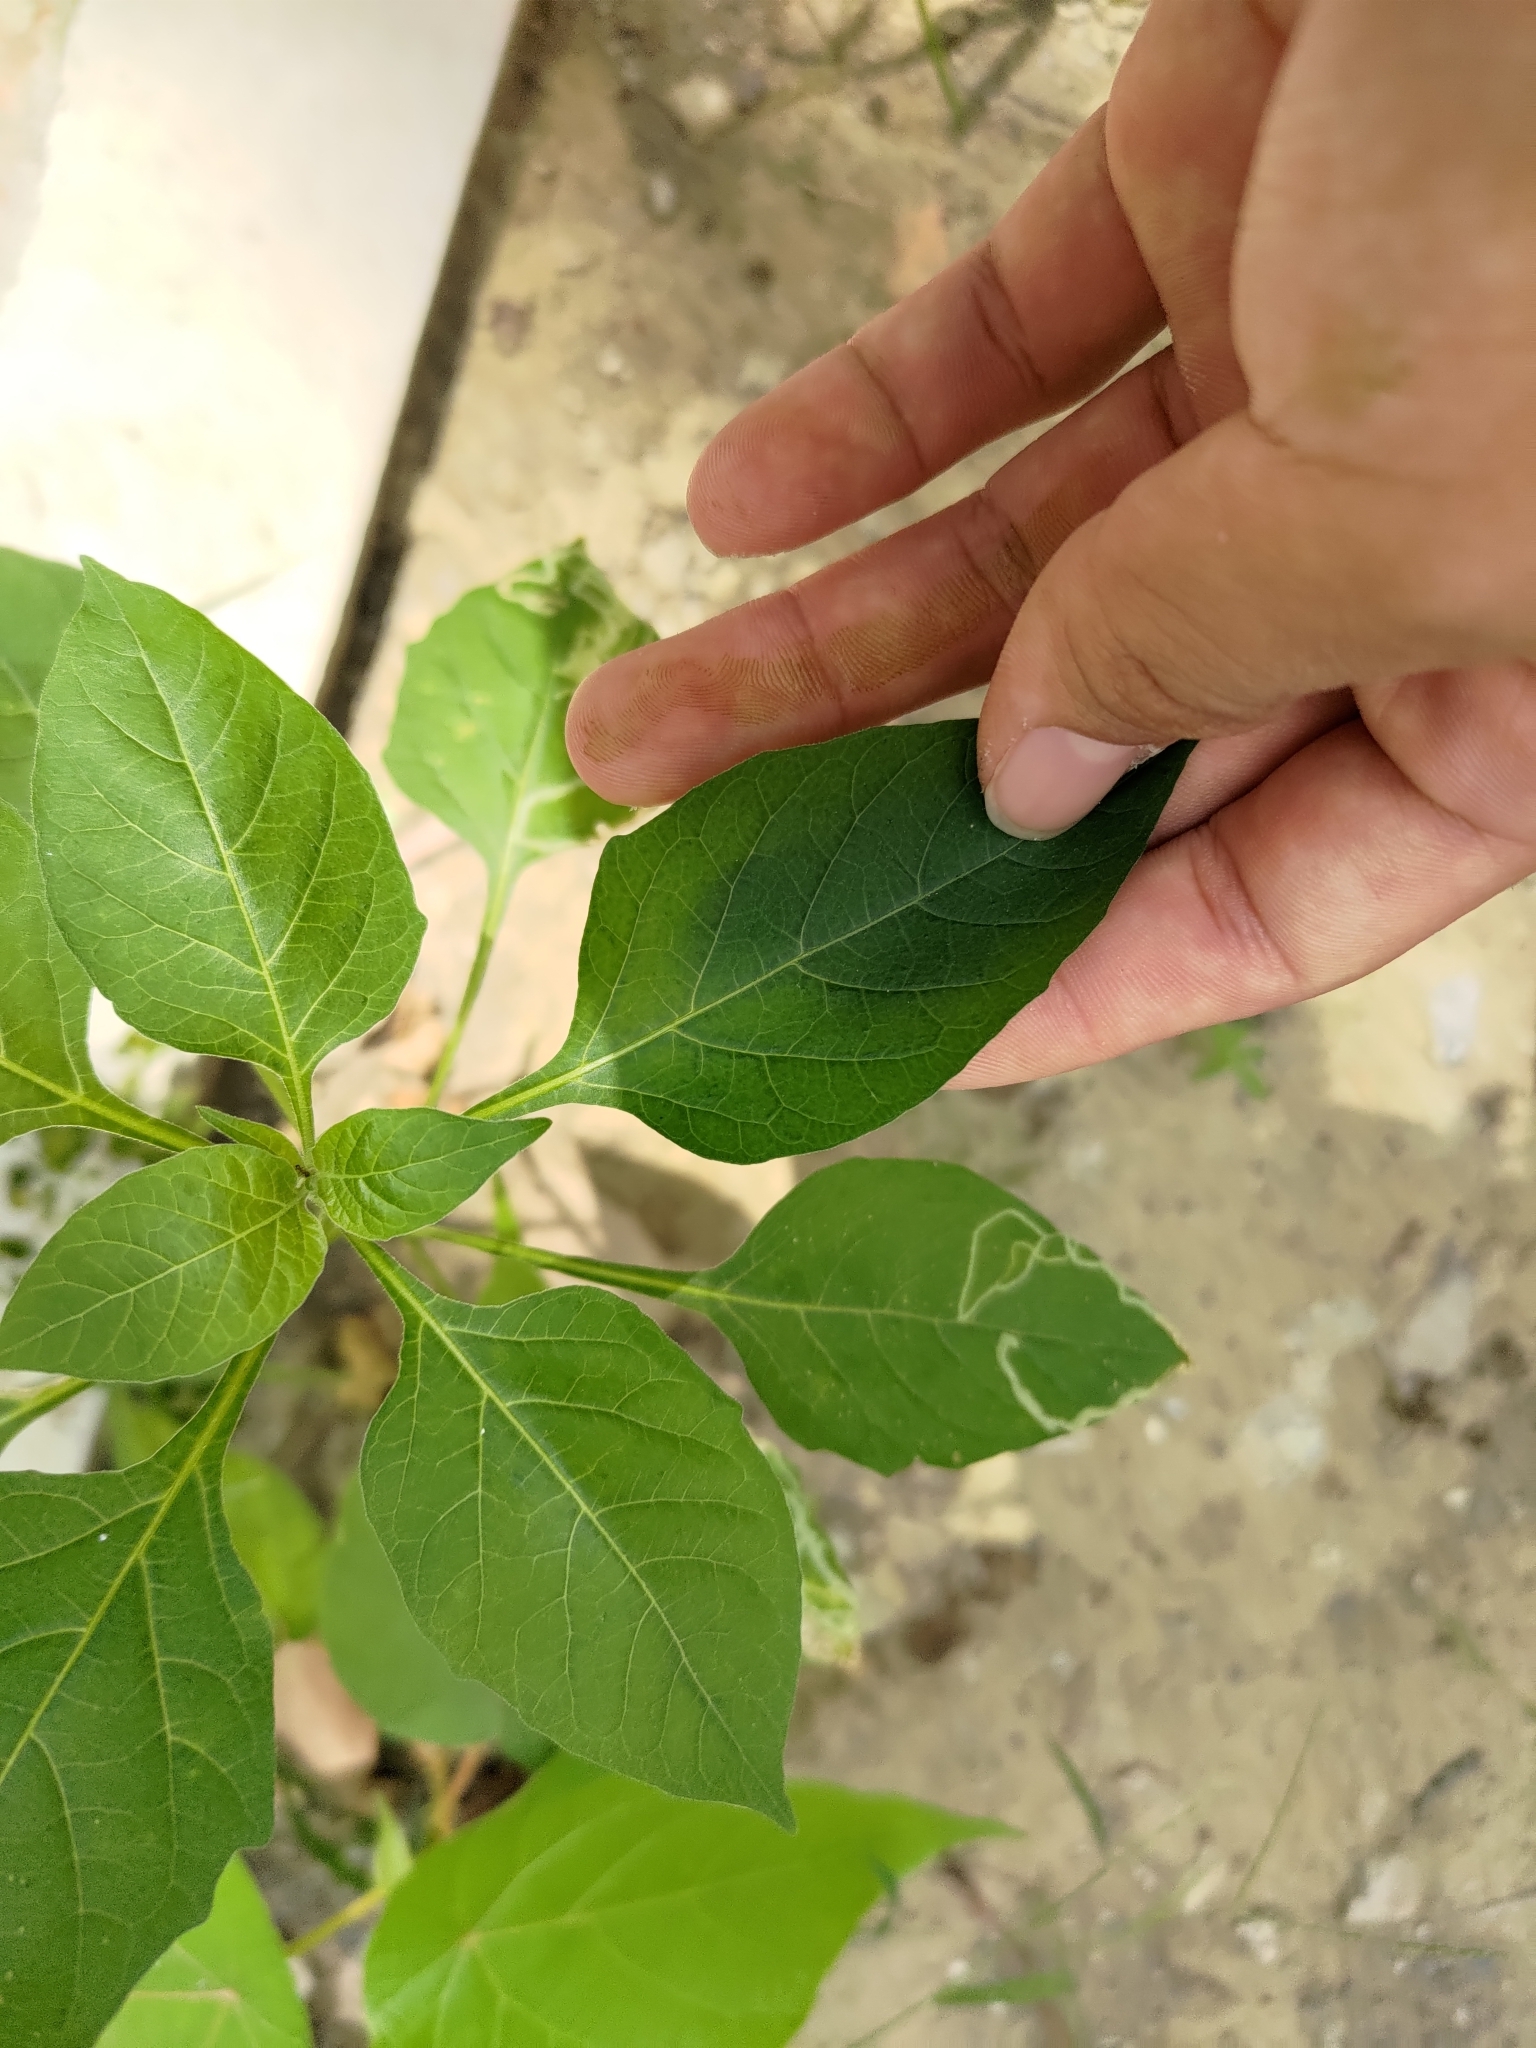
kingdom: Plantae
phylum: Tracheophyta
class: Magnoliopsida
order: Solanales
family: Solanaceae
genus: Solanum
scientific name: Solanum
